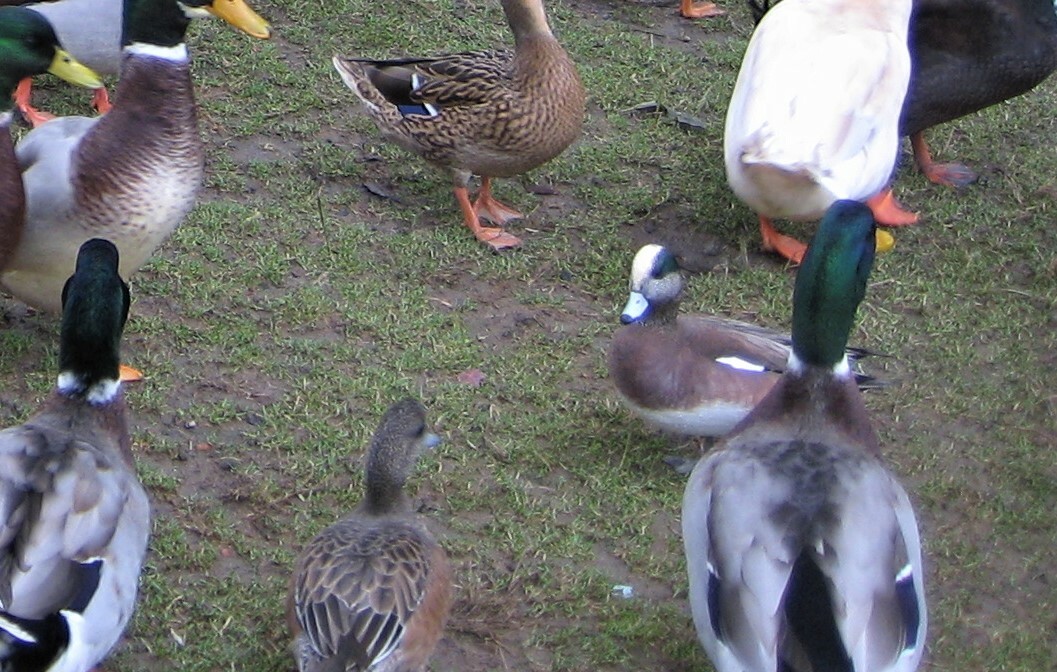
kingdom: Animalia
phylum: Chordata
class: Aves
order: Anseriformes
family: Anatidae
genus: Mareca
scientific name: Mareca americana
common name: American wigeon
